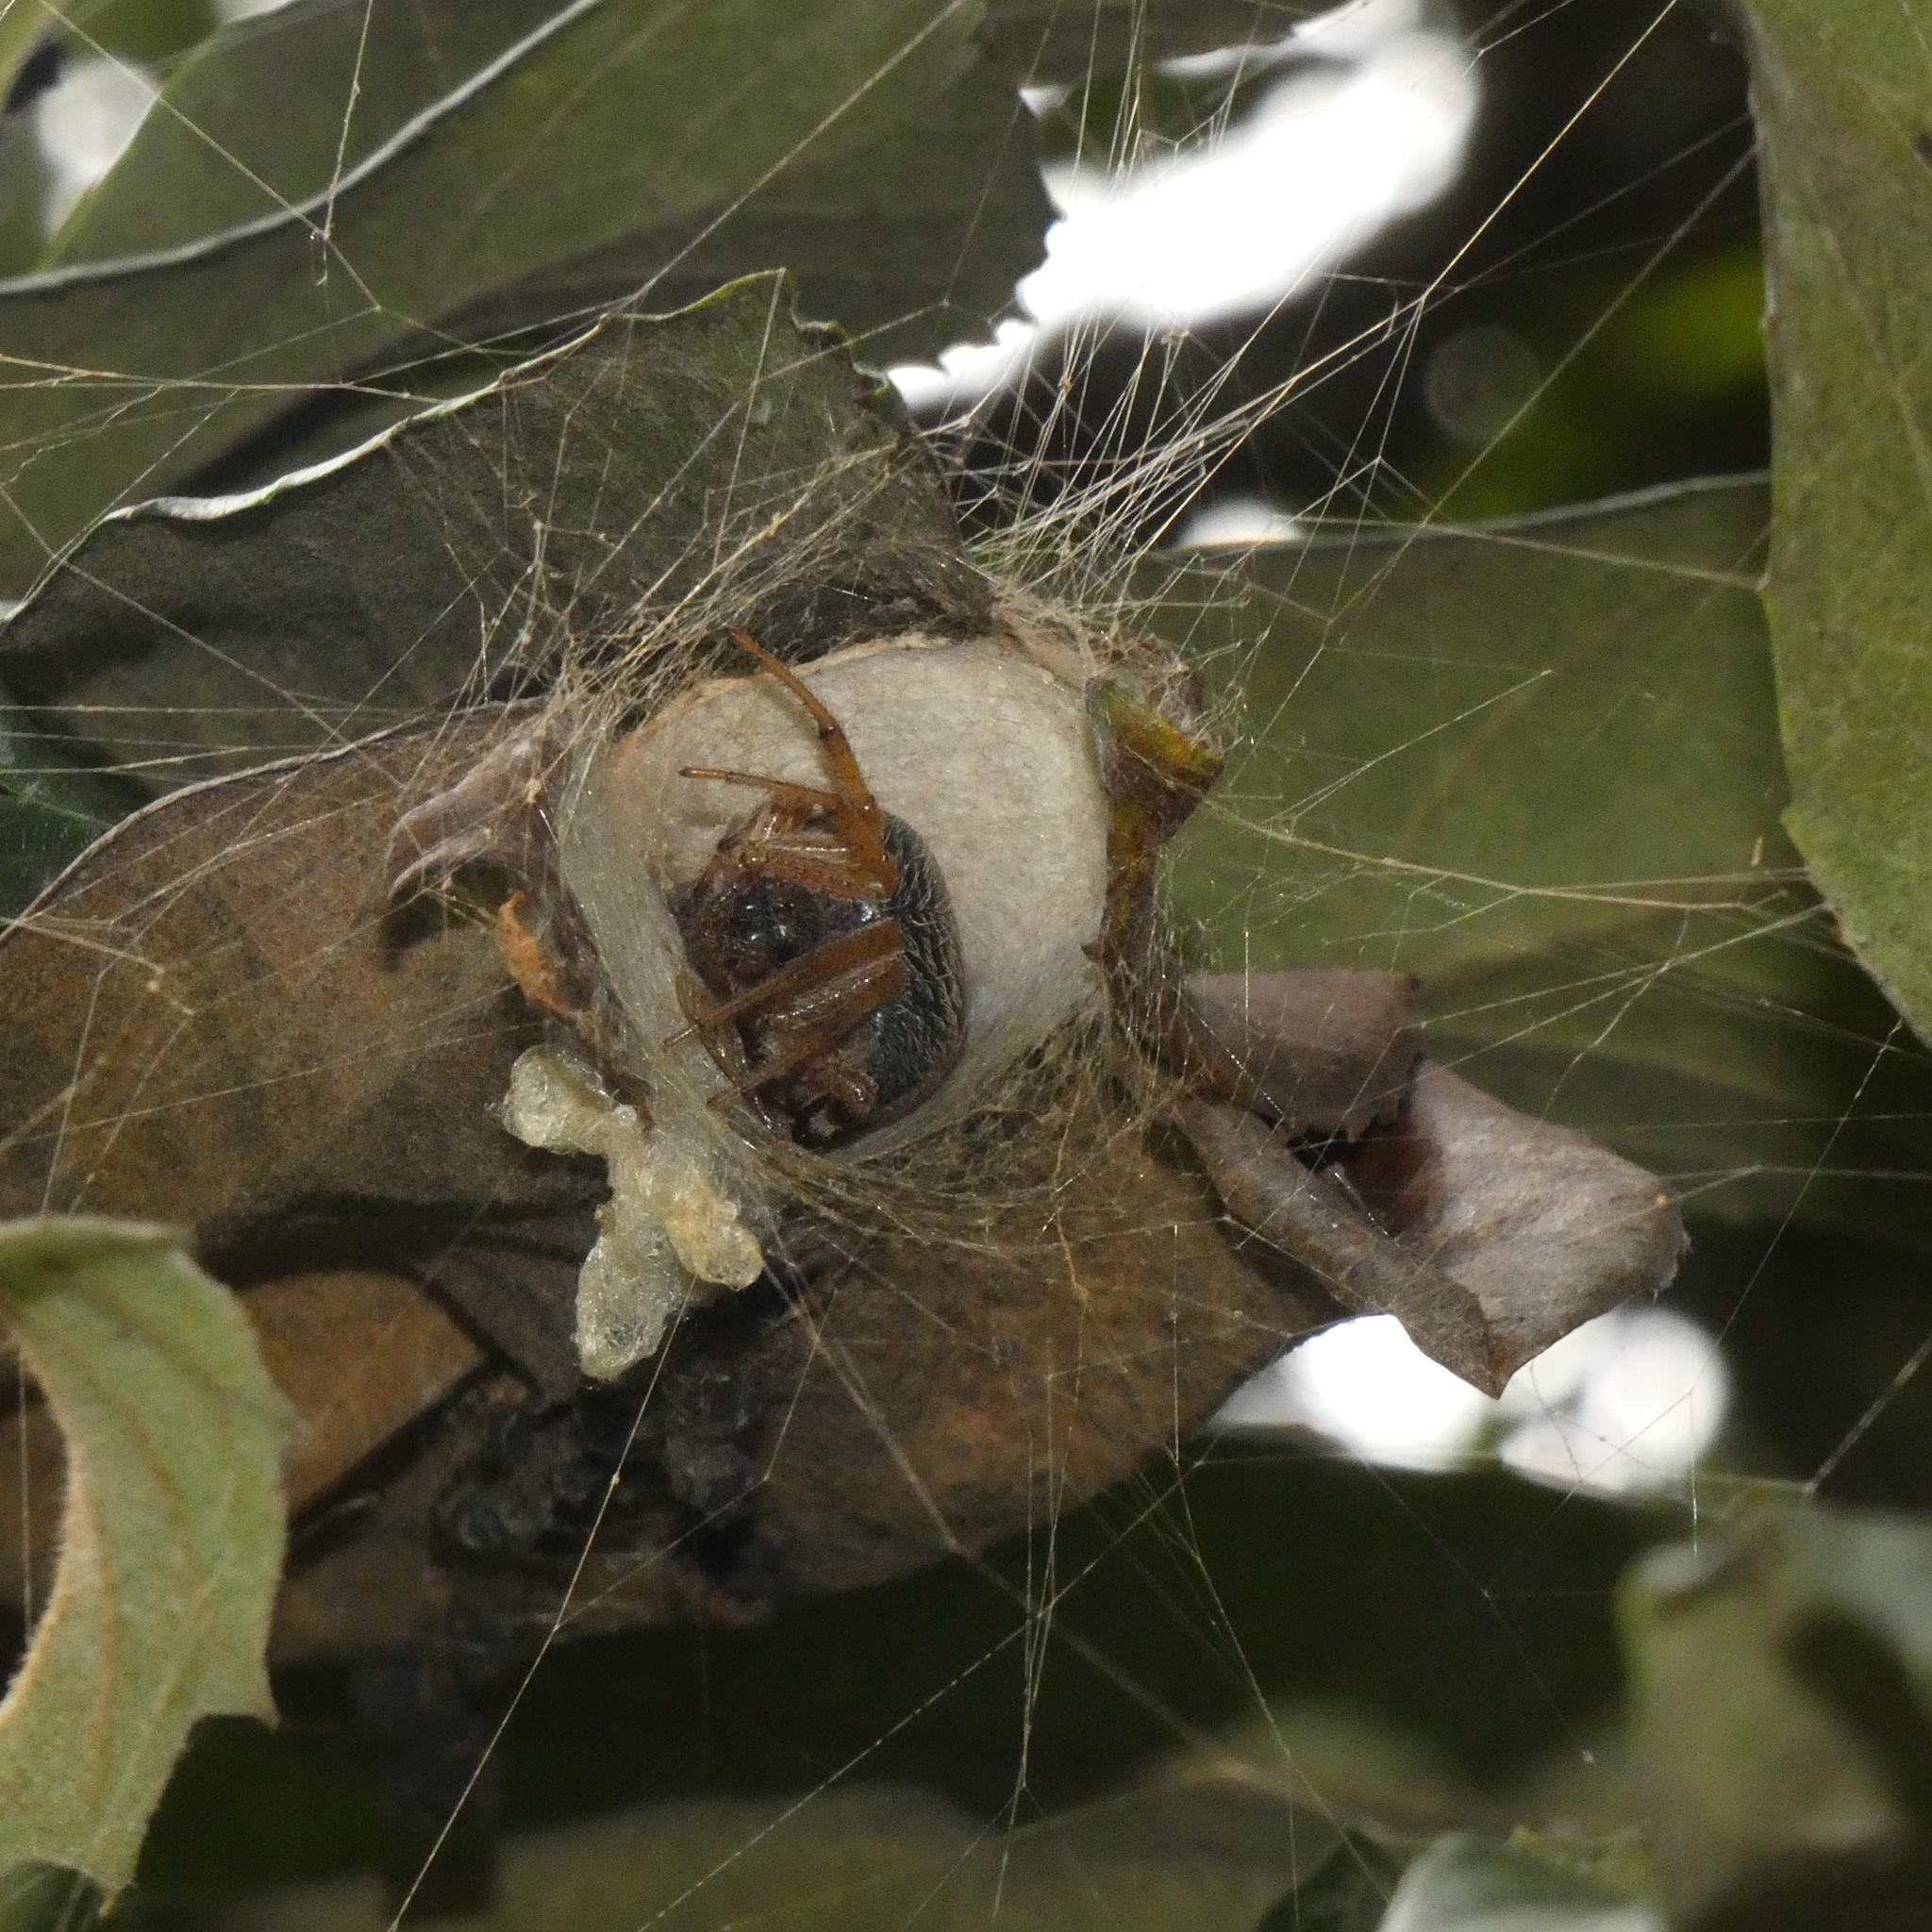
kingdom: Animalia
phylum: Arthropoda
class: Arachnida
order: Araneae
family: Araneidae
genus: Nephilingis
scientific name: Nephilingis cruentata
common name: African hermit spider
